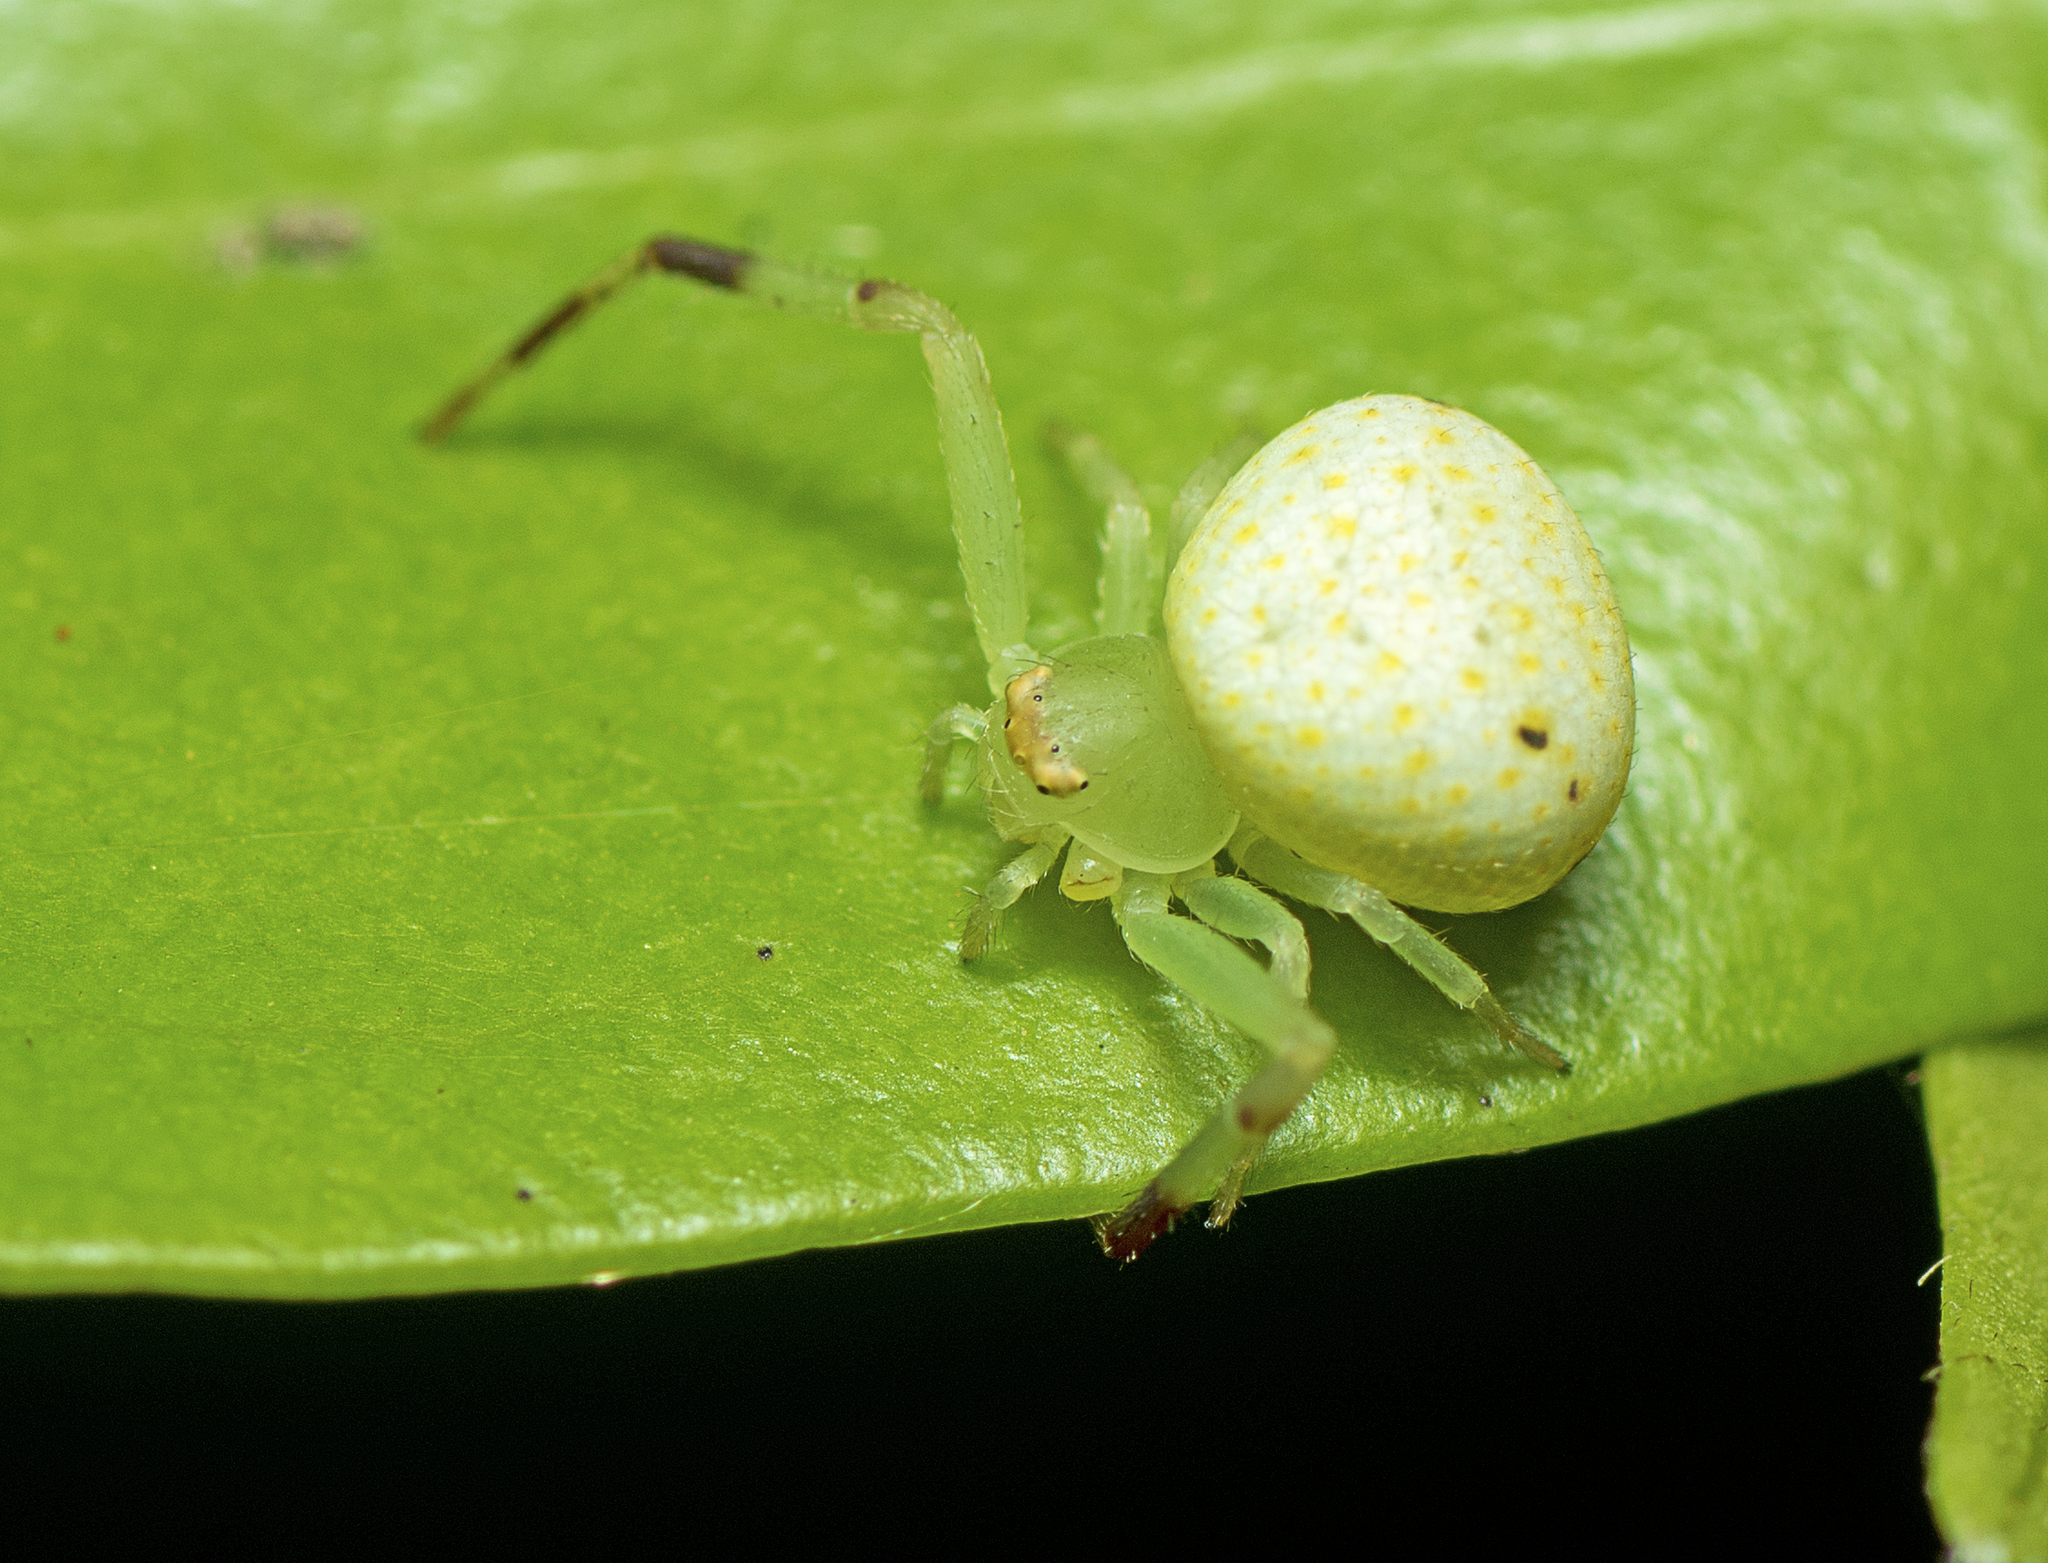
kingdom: Animalia
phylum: Arthropoda
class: Arachnida
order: Araneae
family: Thomisidae
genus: Boomerangiana
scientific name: Boomerangiana dimidiata
